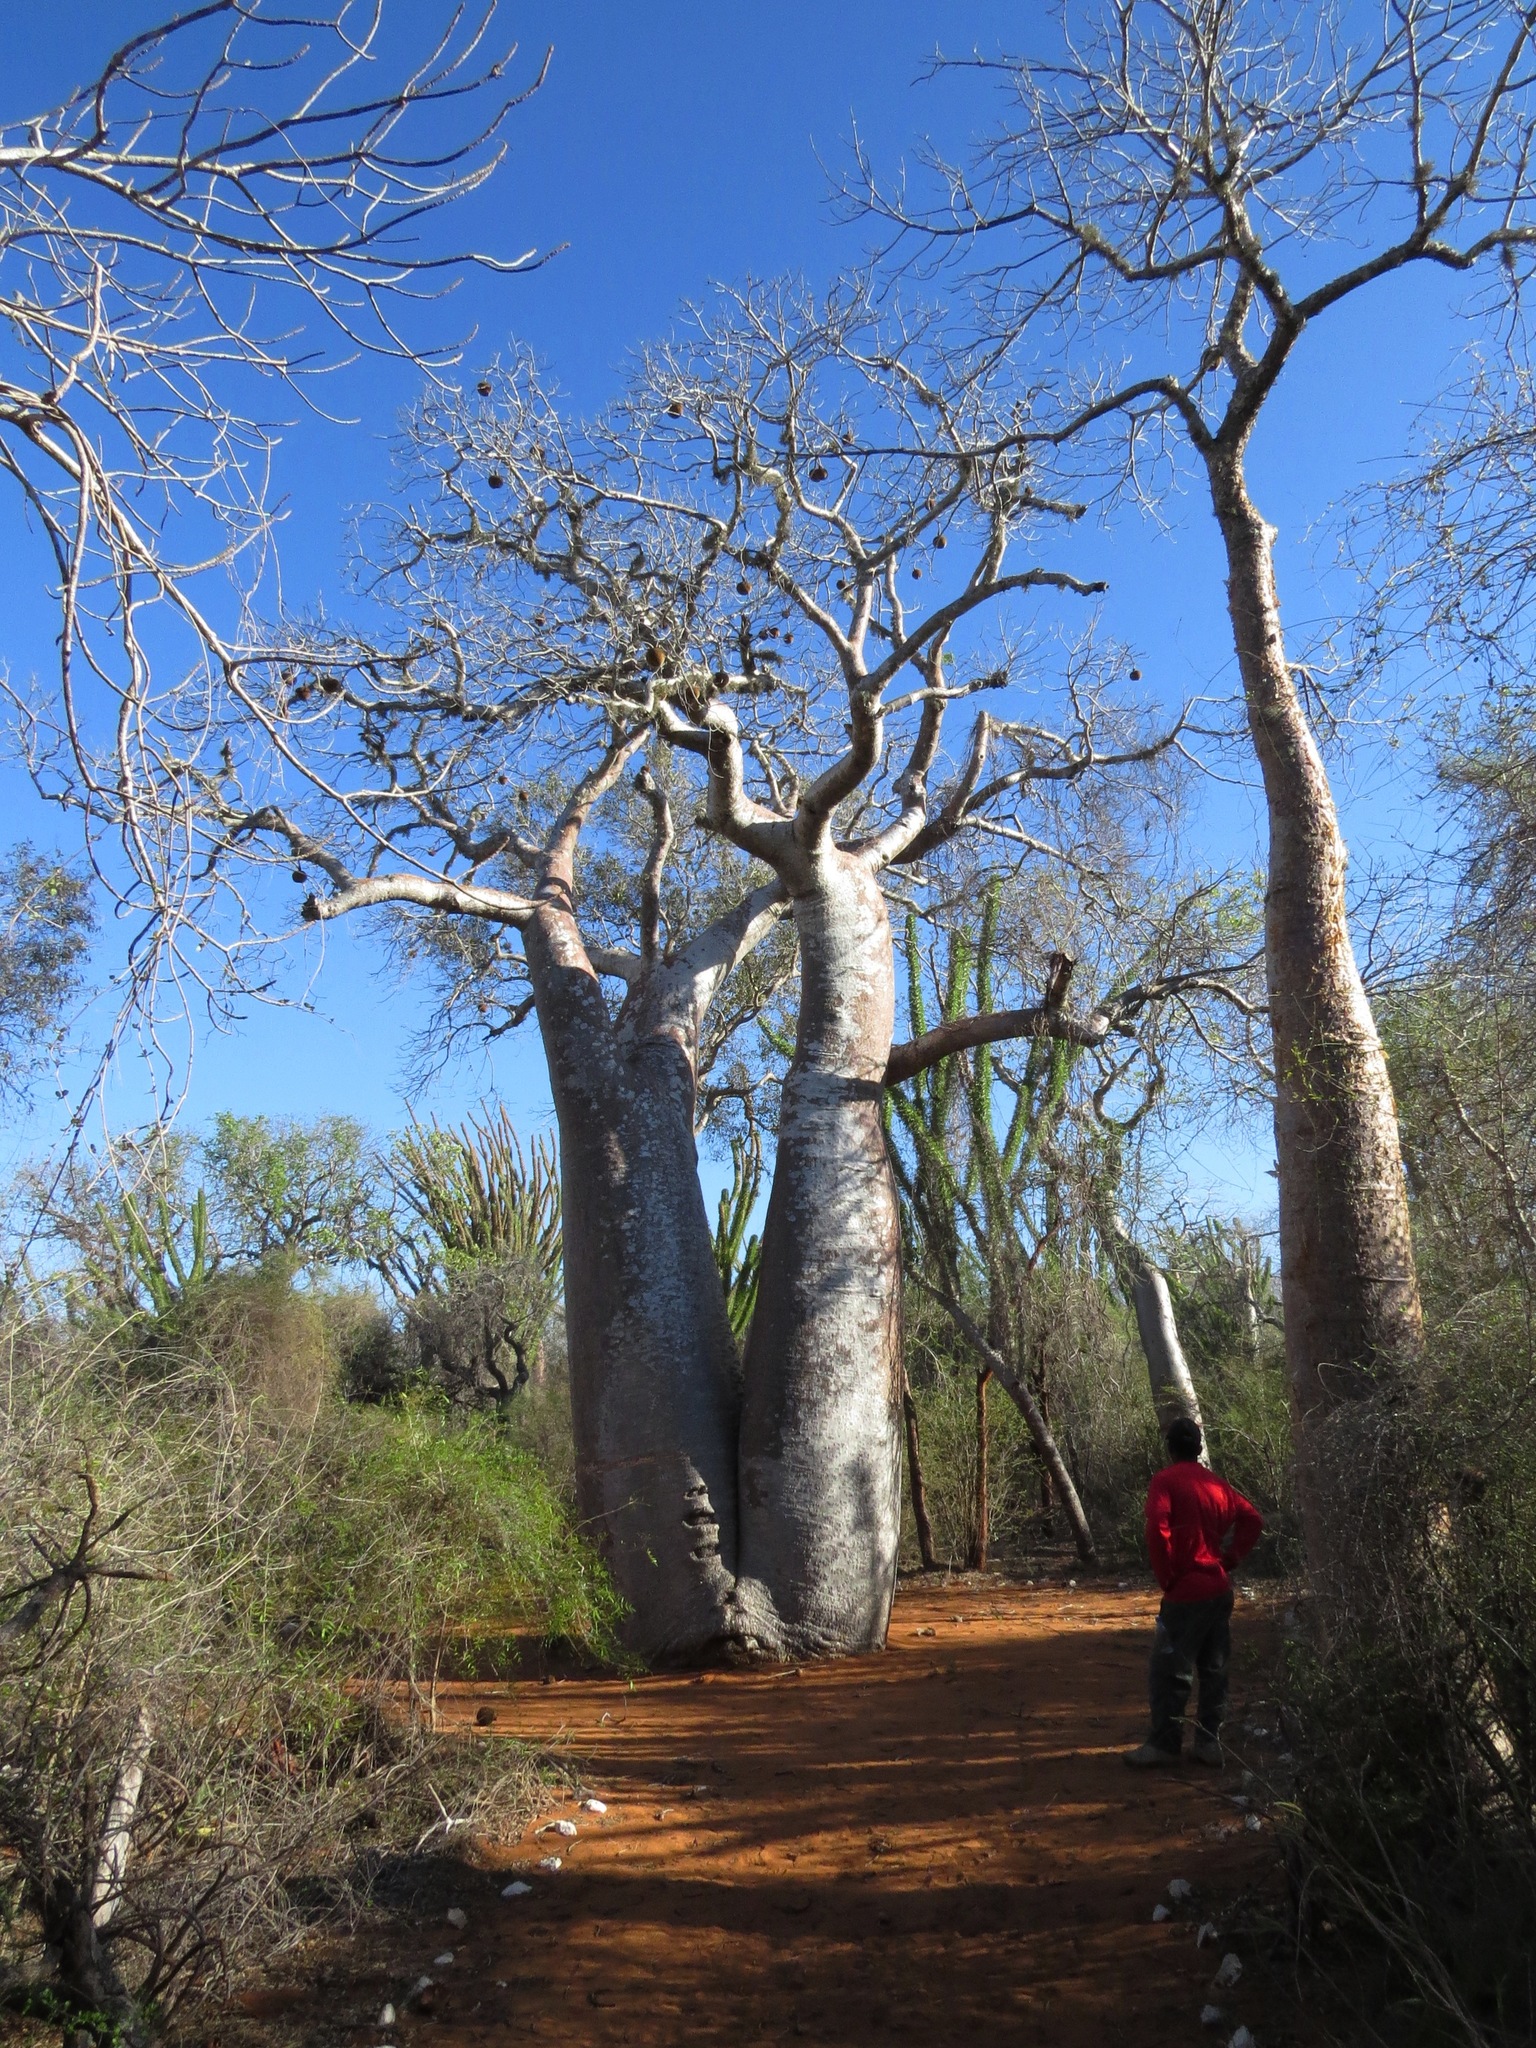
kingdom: Plantae
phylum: Tracheophyta
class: Magnoliopsida
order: Malvales
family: Malvaceae
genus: Adansonia
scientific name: Adansonia rubrostipa
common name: Fony baobab
